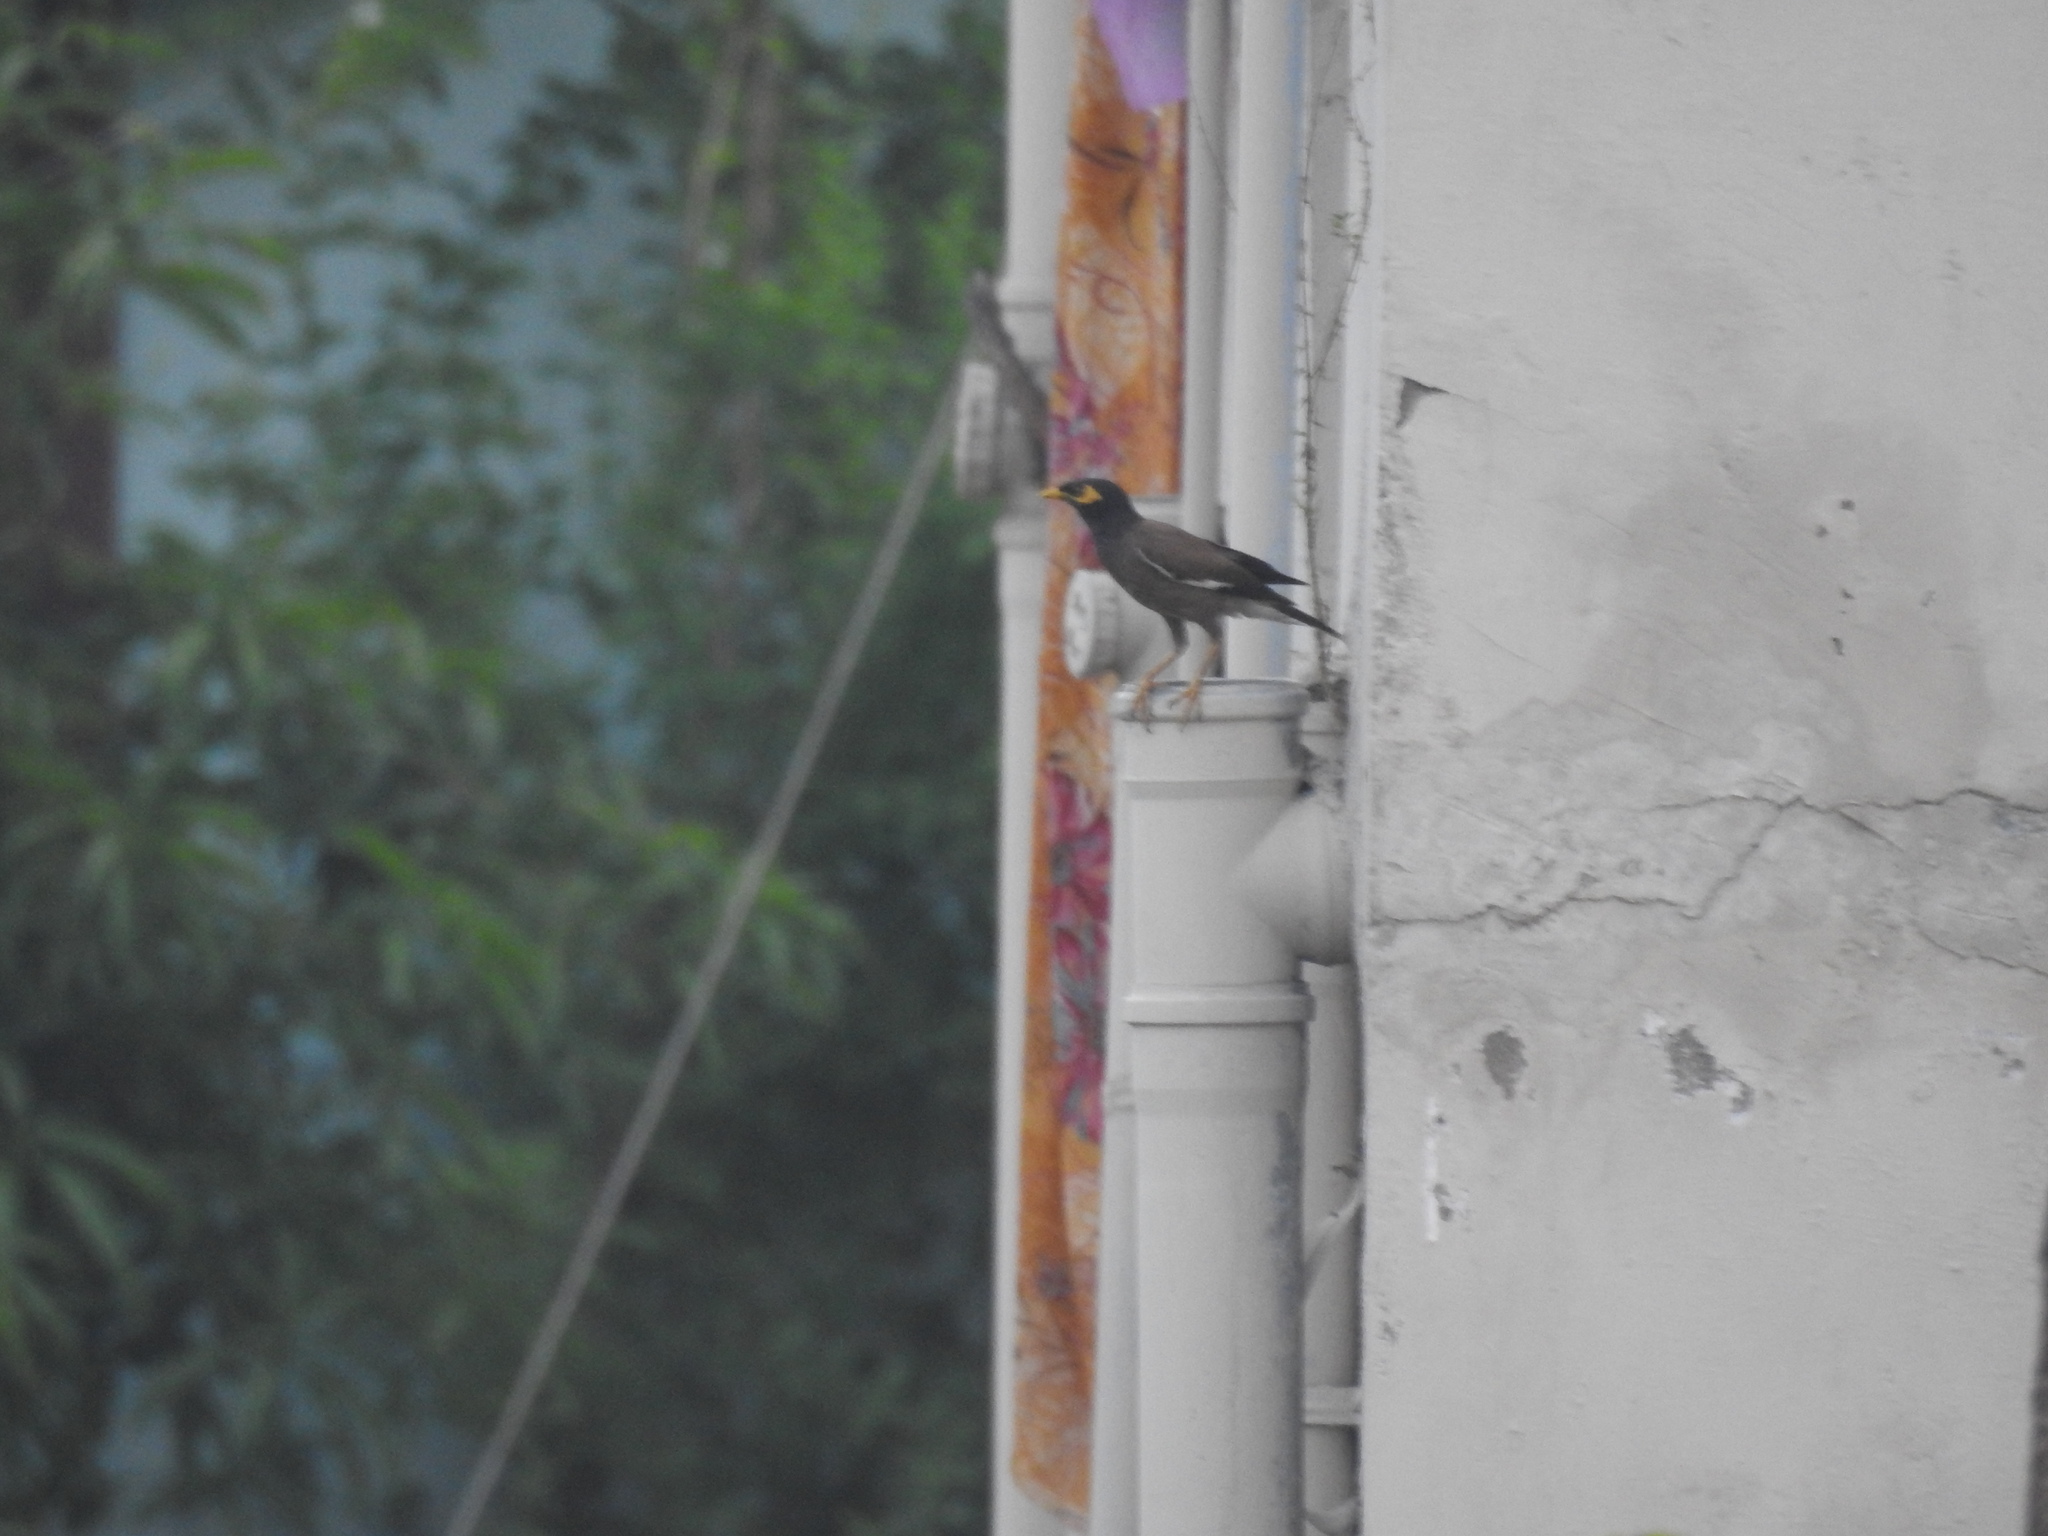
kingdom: Animalia
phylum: Chordata
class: Aves
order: Passeriformes
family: Sturnidae
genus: Acridotheres
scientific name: Acridotheres tristis
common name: Common myna
